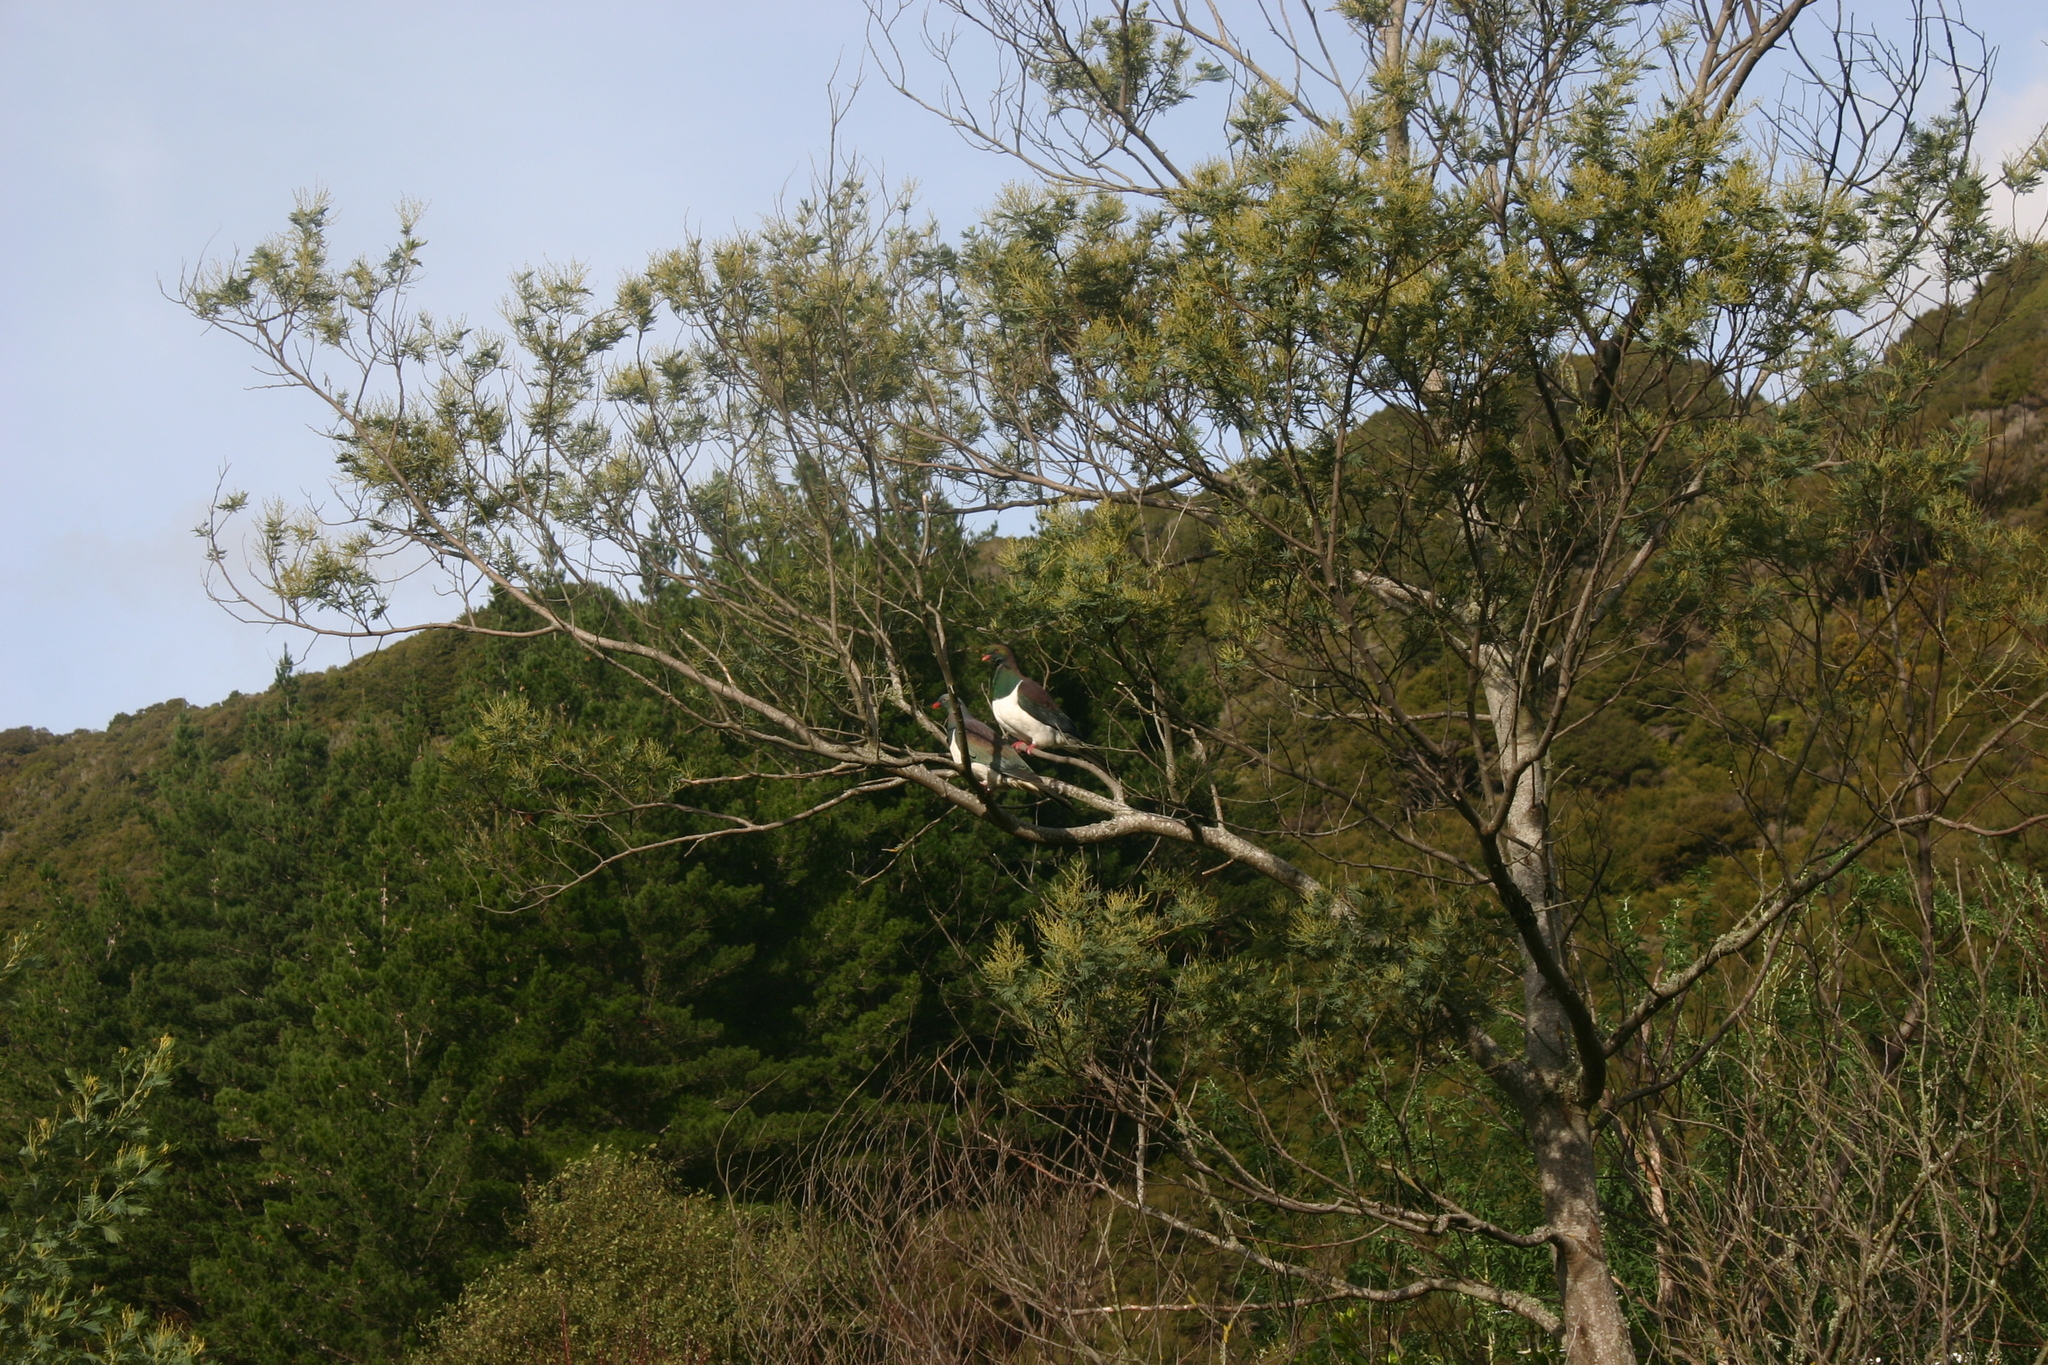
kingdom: Animalia
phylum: Chordata
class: Aves
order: Columbiformes
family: Columbidae
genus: Hemiphaga
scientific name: Hemiphaga novaeseelandiae
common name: New zealand pigeon
